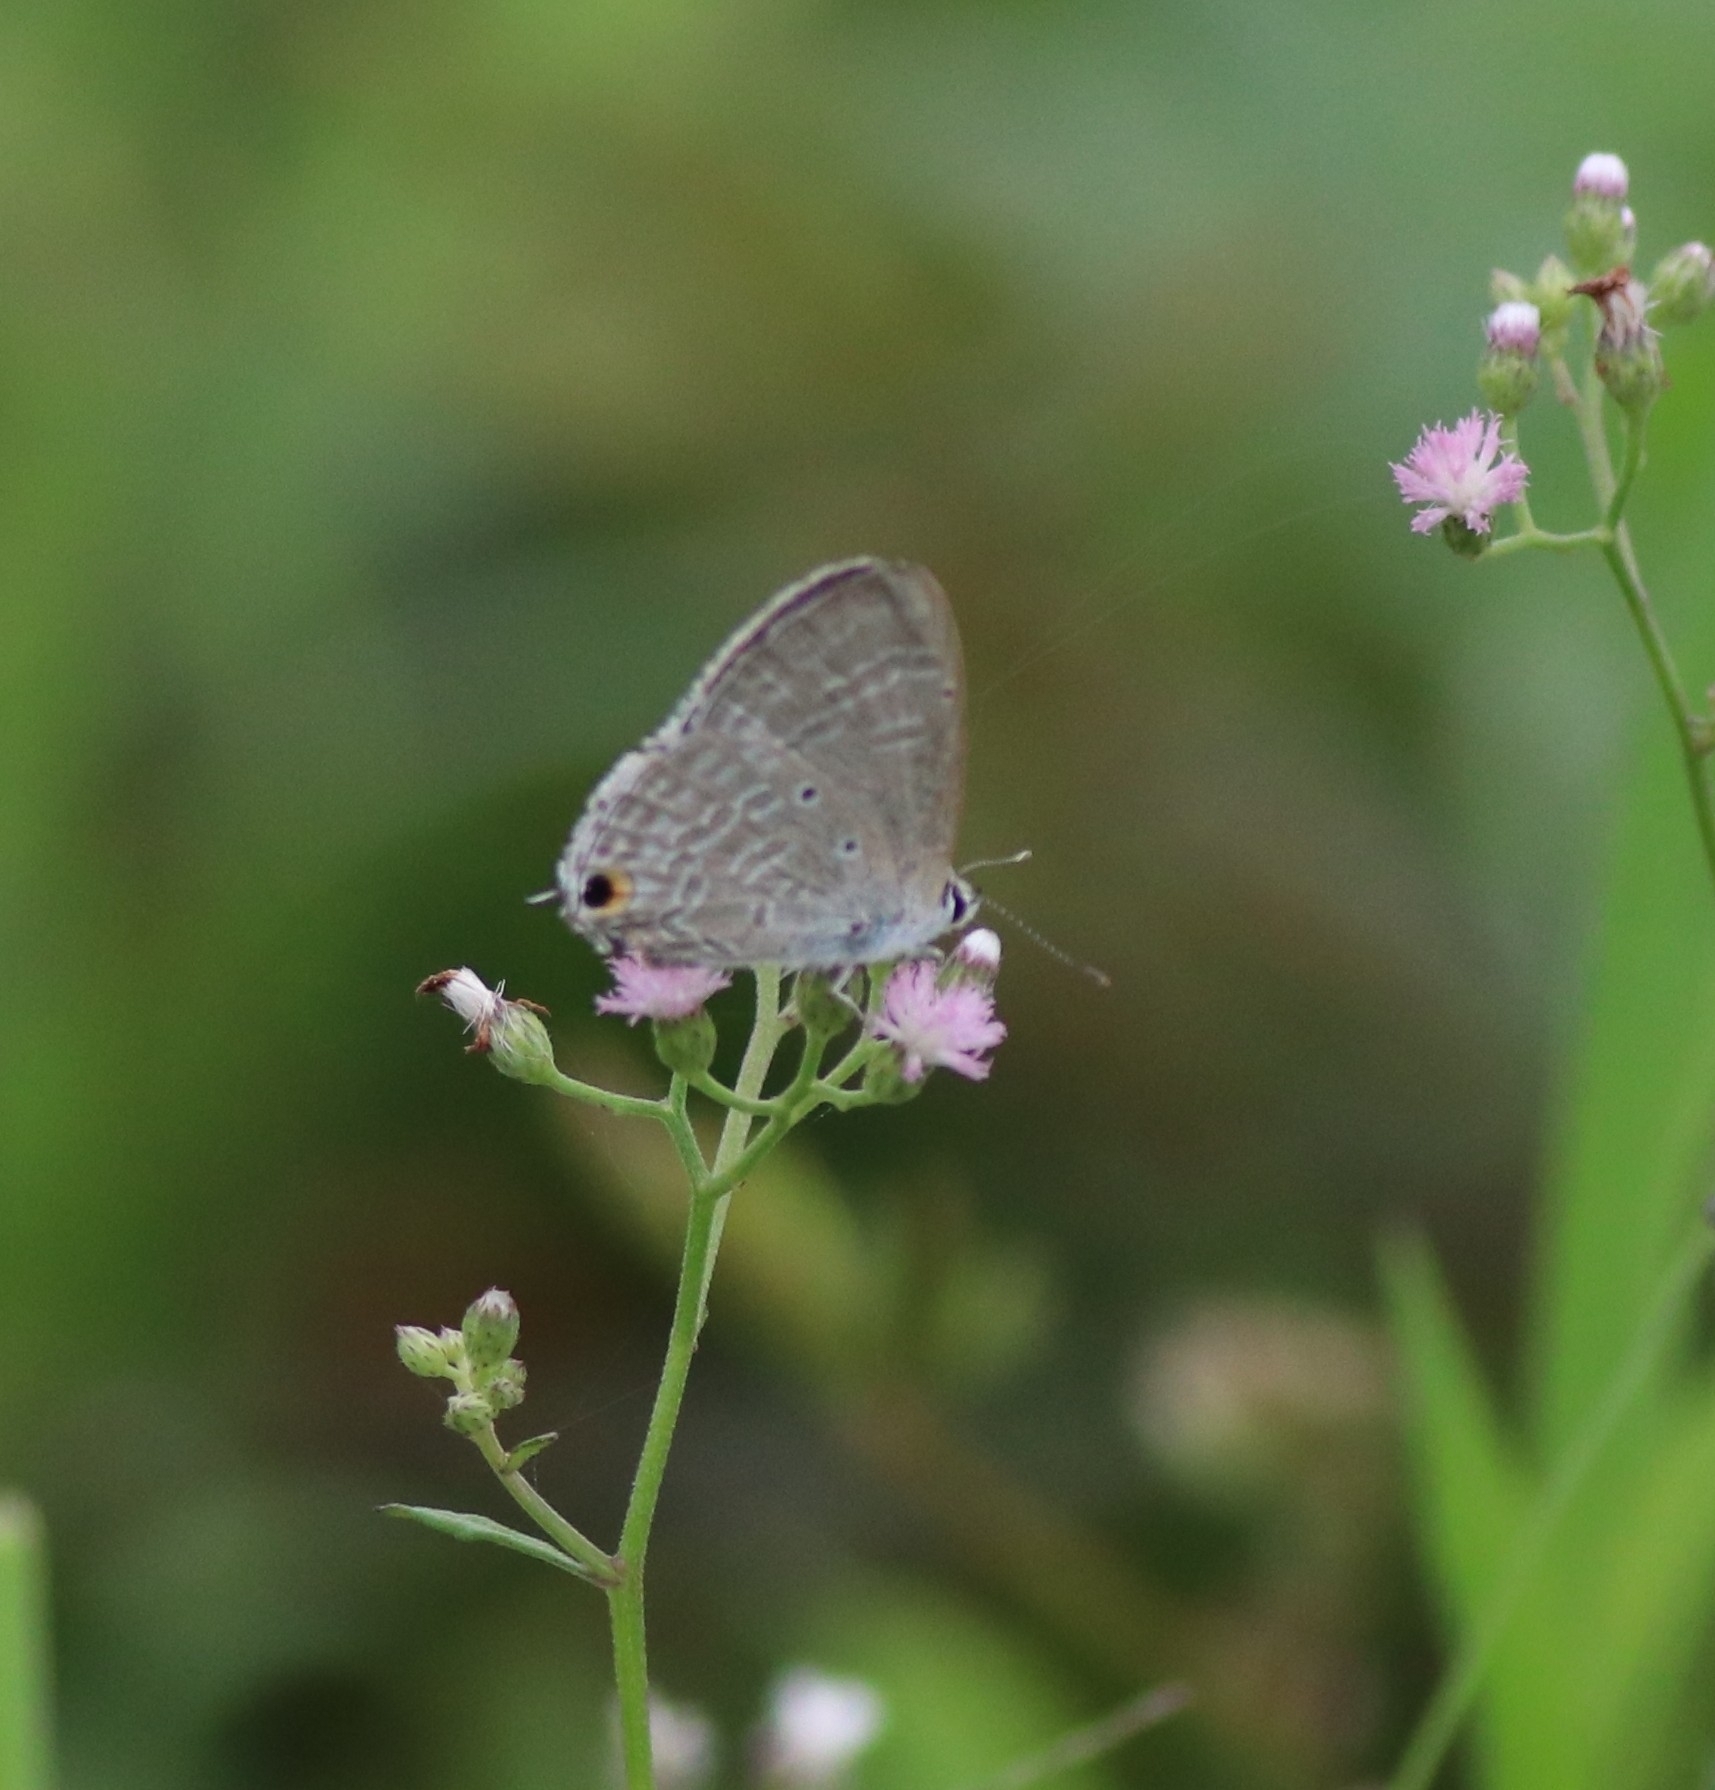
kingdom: Animalia
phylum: Arthropoda
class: Insecta
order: Lepidoptera
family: Lycaenidae
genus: Catochrysops
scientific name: Catochrysops strabo
